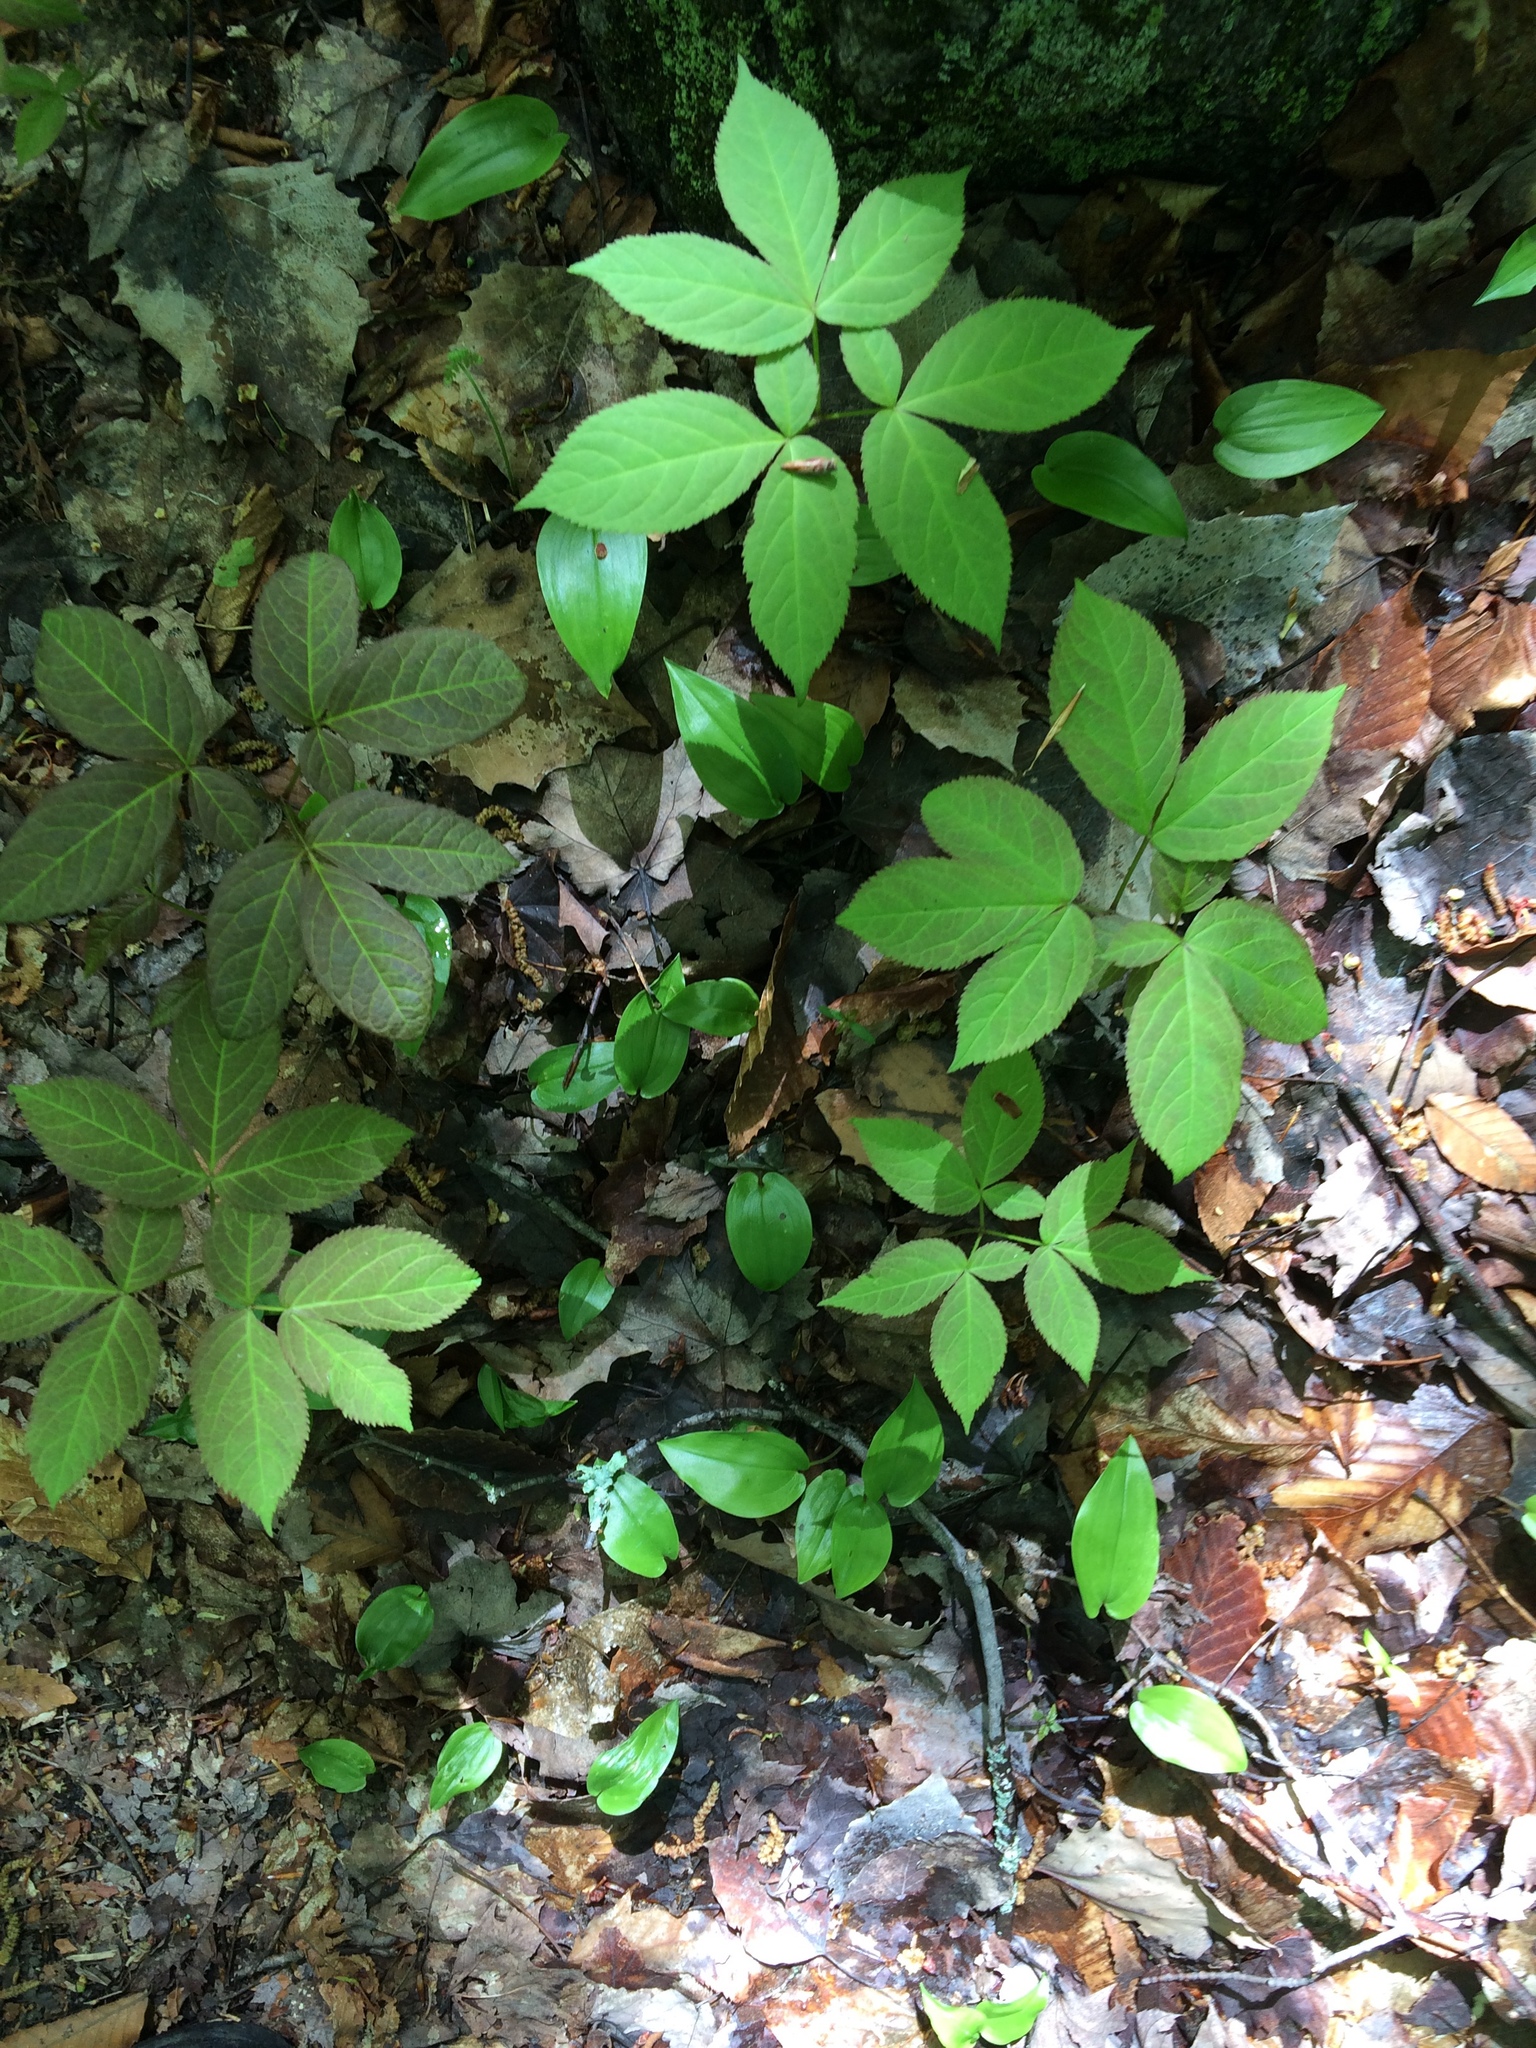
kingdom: Plantae
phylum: Tracheophyta
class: Magnoliopsida
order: Apiales
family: Araliaceae
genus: Aralia
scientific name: Aralia nudicaulis
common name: Wild sarsaparilla
